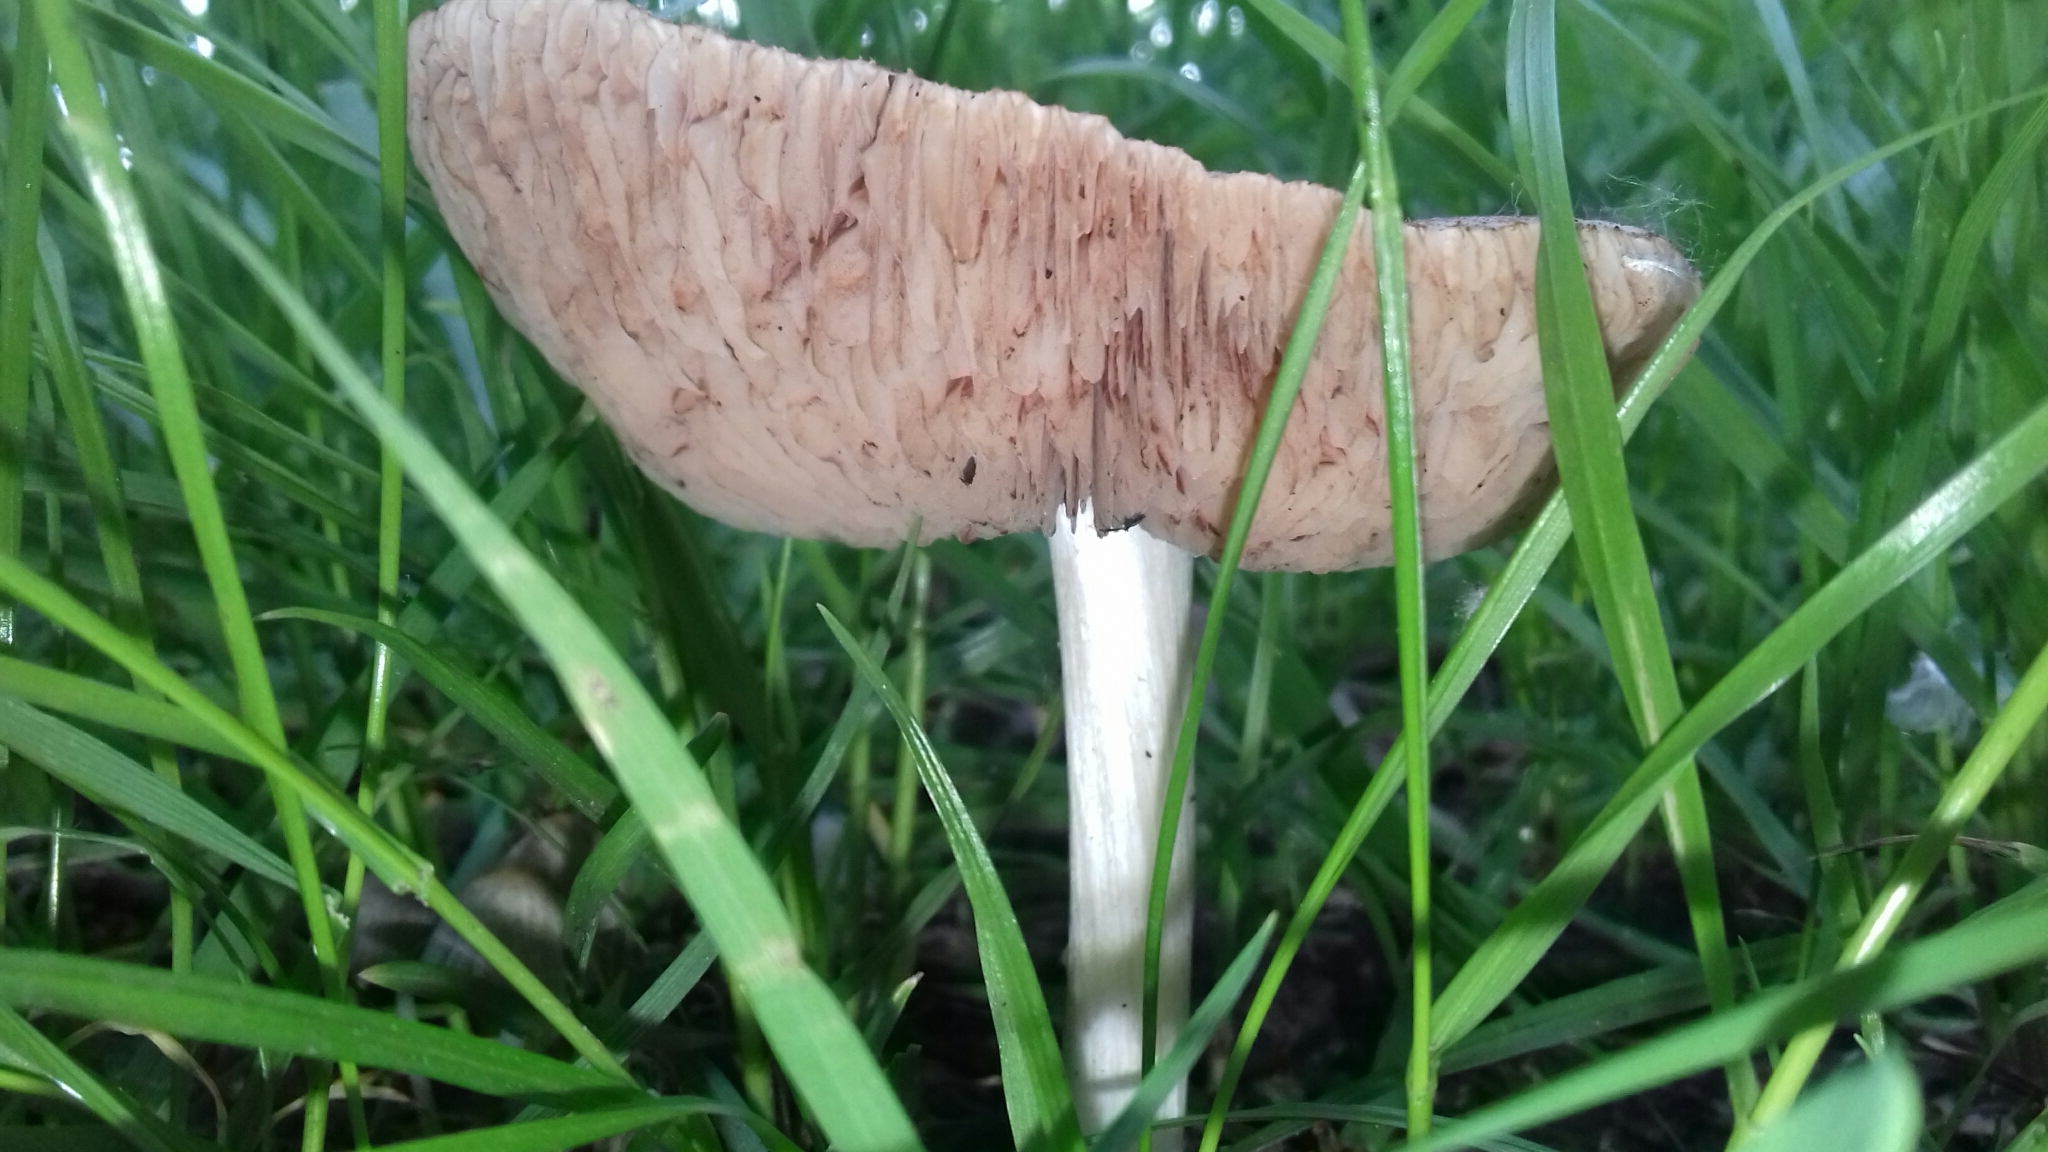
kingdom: Fungi
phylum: Basidiomycota
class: Agaricomycetes
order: Agaricales
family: Pluteaceae
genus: Volvopluteus
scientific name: Volvopluteus gloiocephalus
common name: Stubble rosegill
